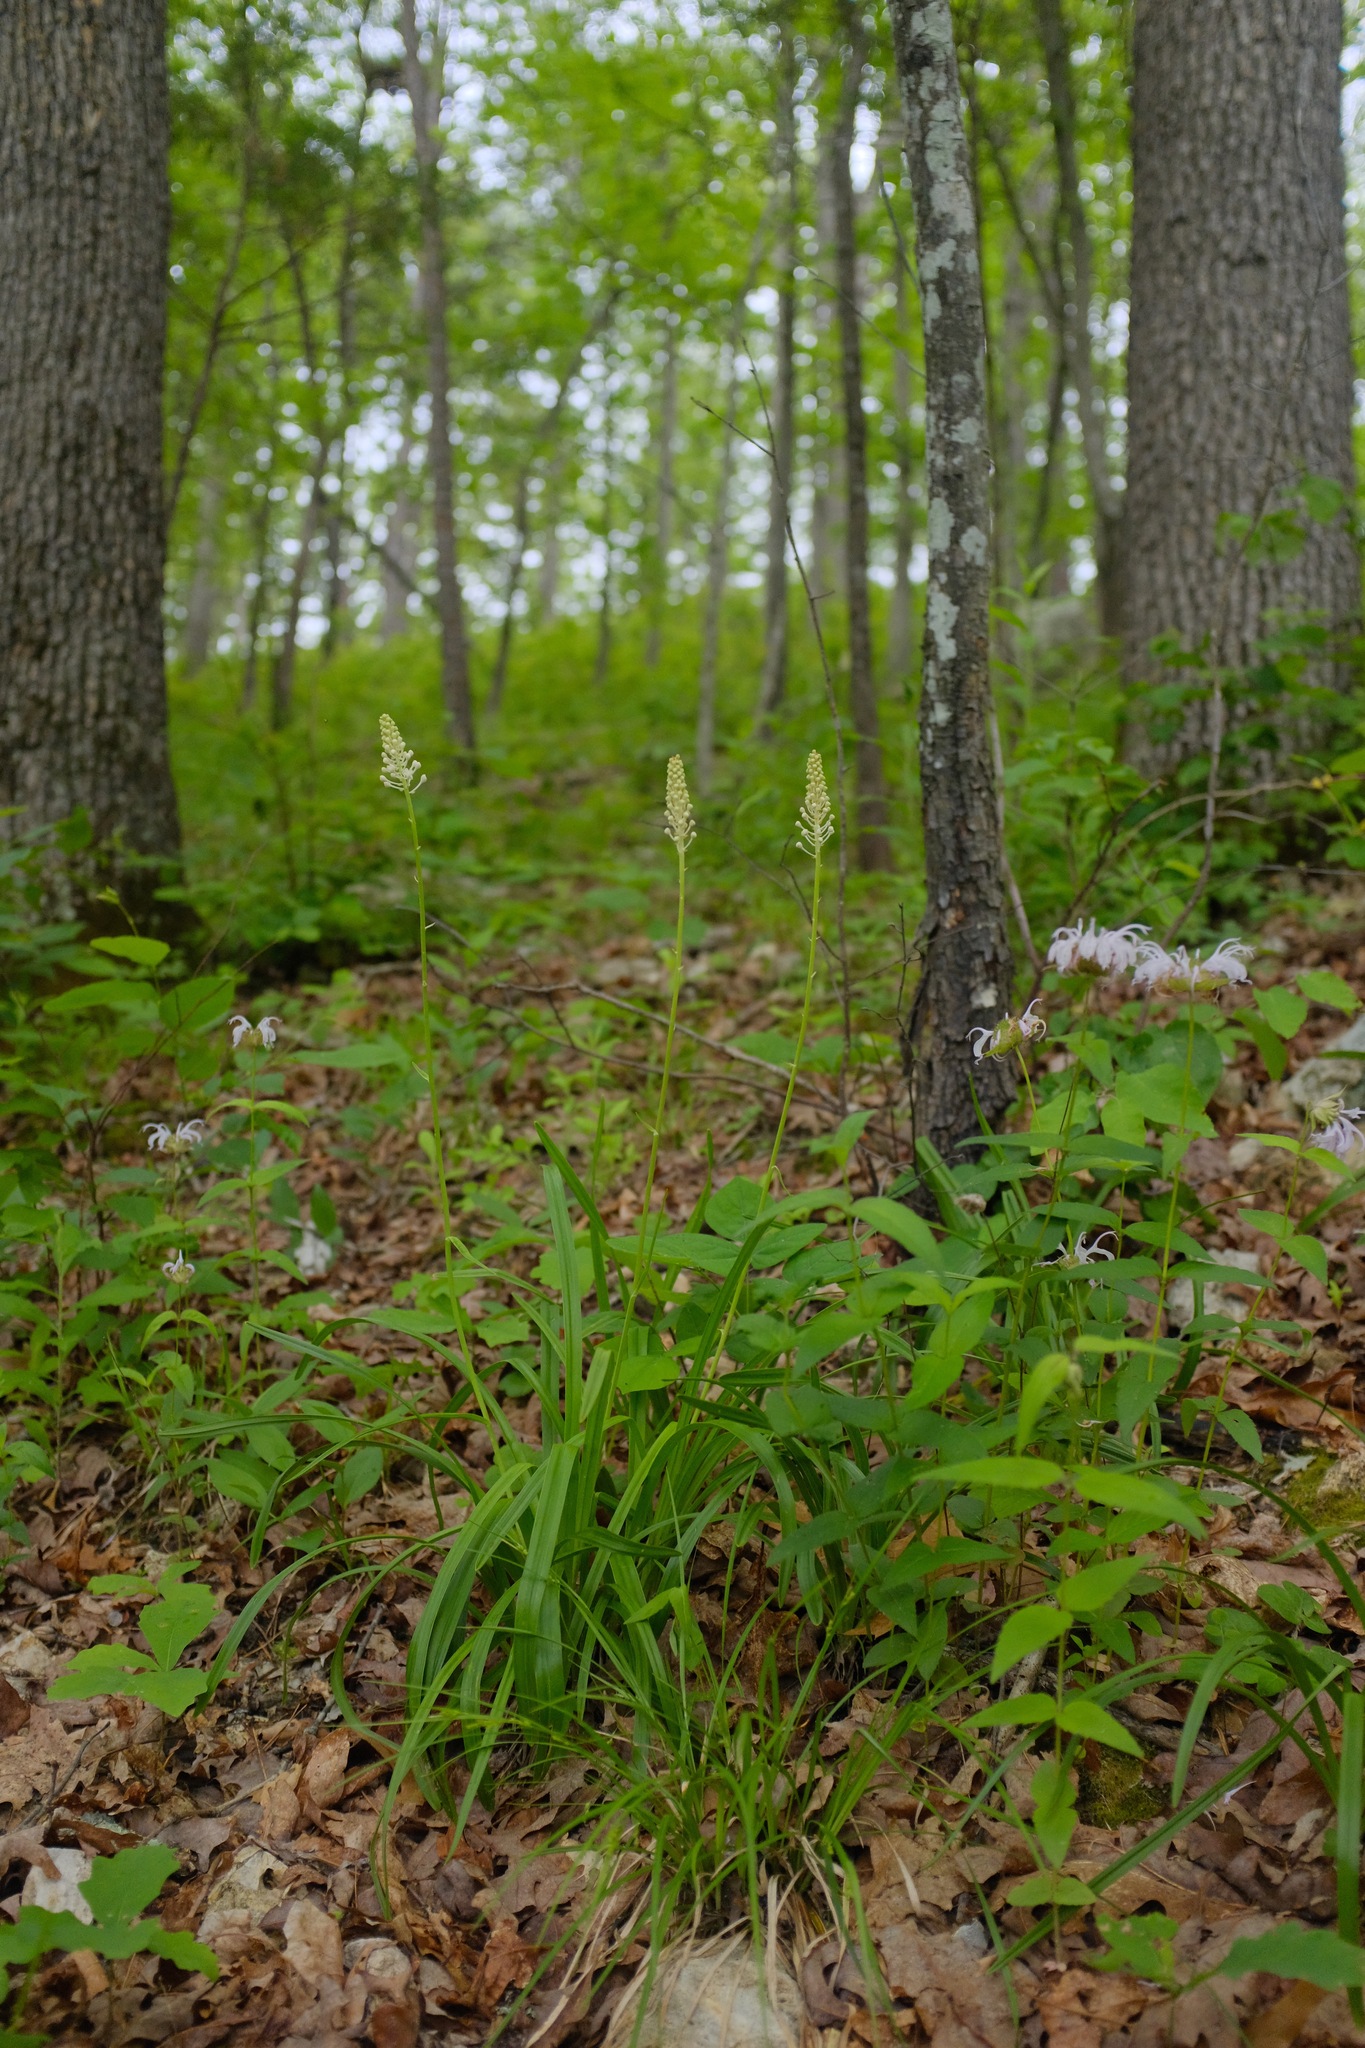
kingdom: Plantae
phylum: Tracheophyta
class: Liliopsida
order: Liliales
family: Melanthiaceae
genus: Amianthium
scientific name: Amianthium muscitoxicum
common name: Fly-poison
